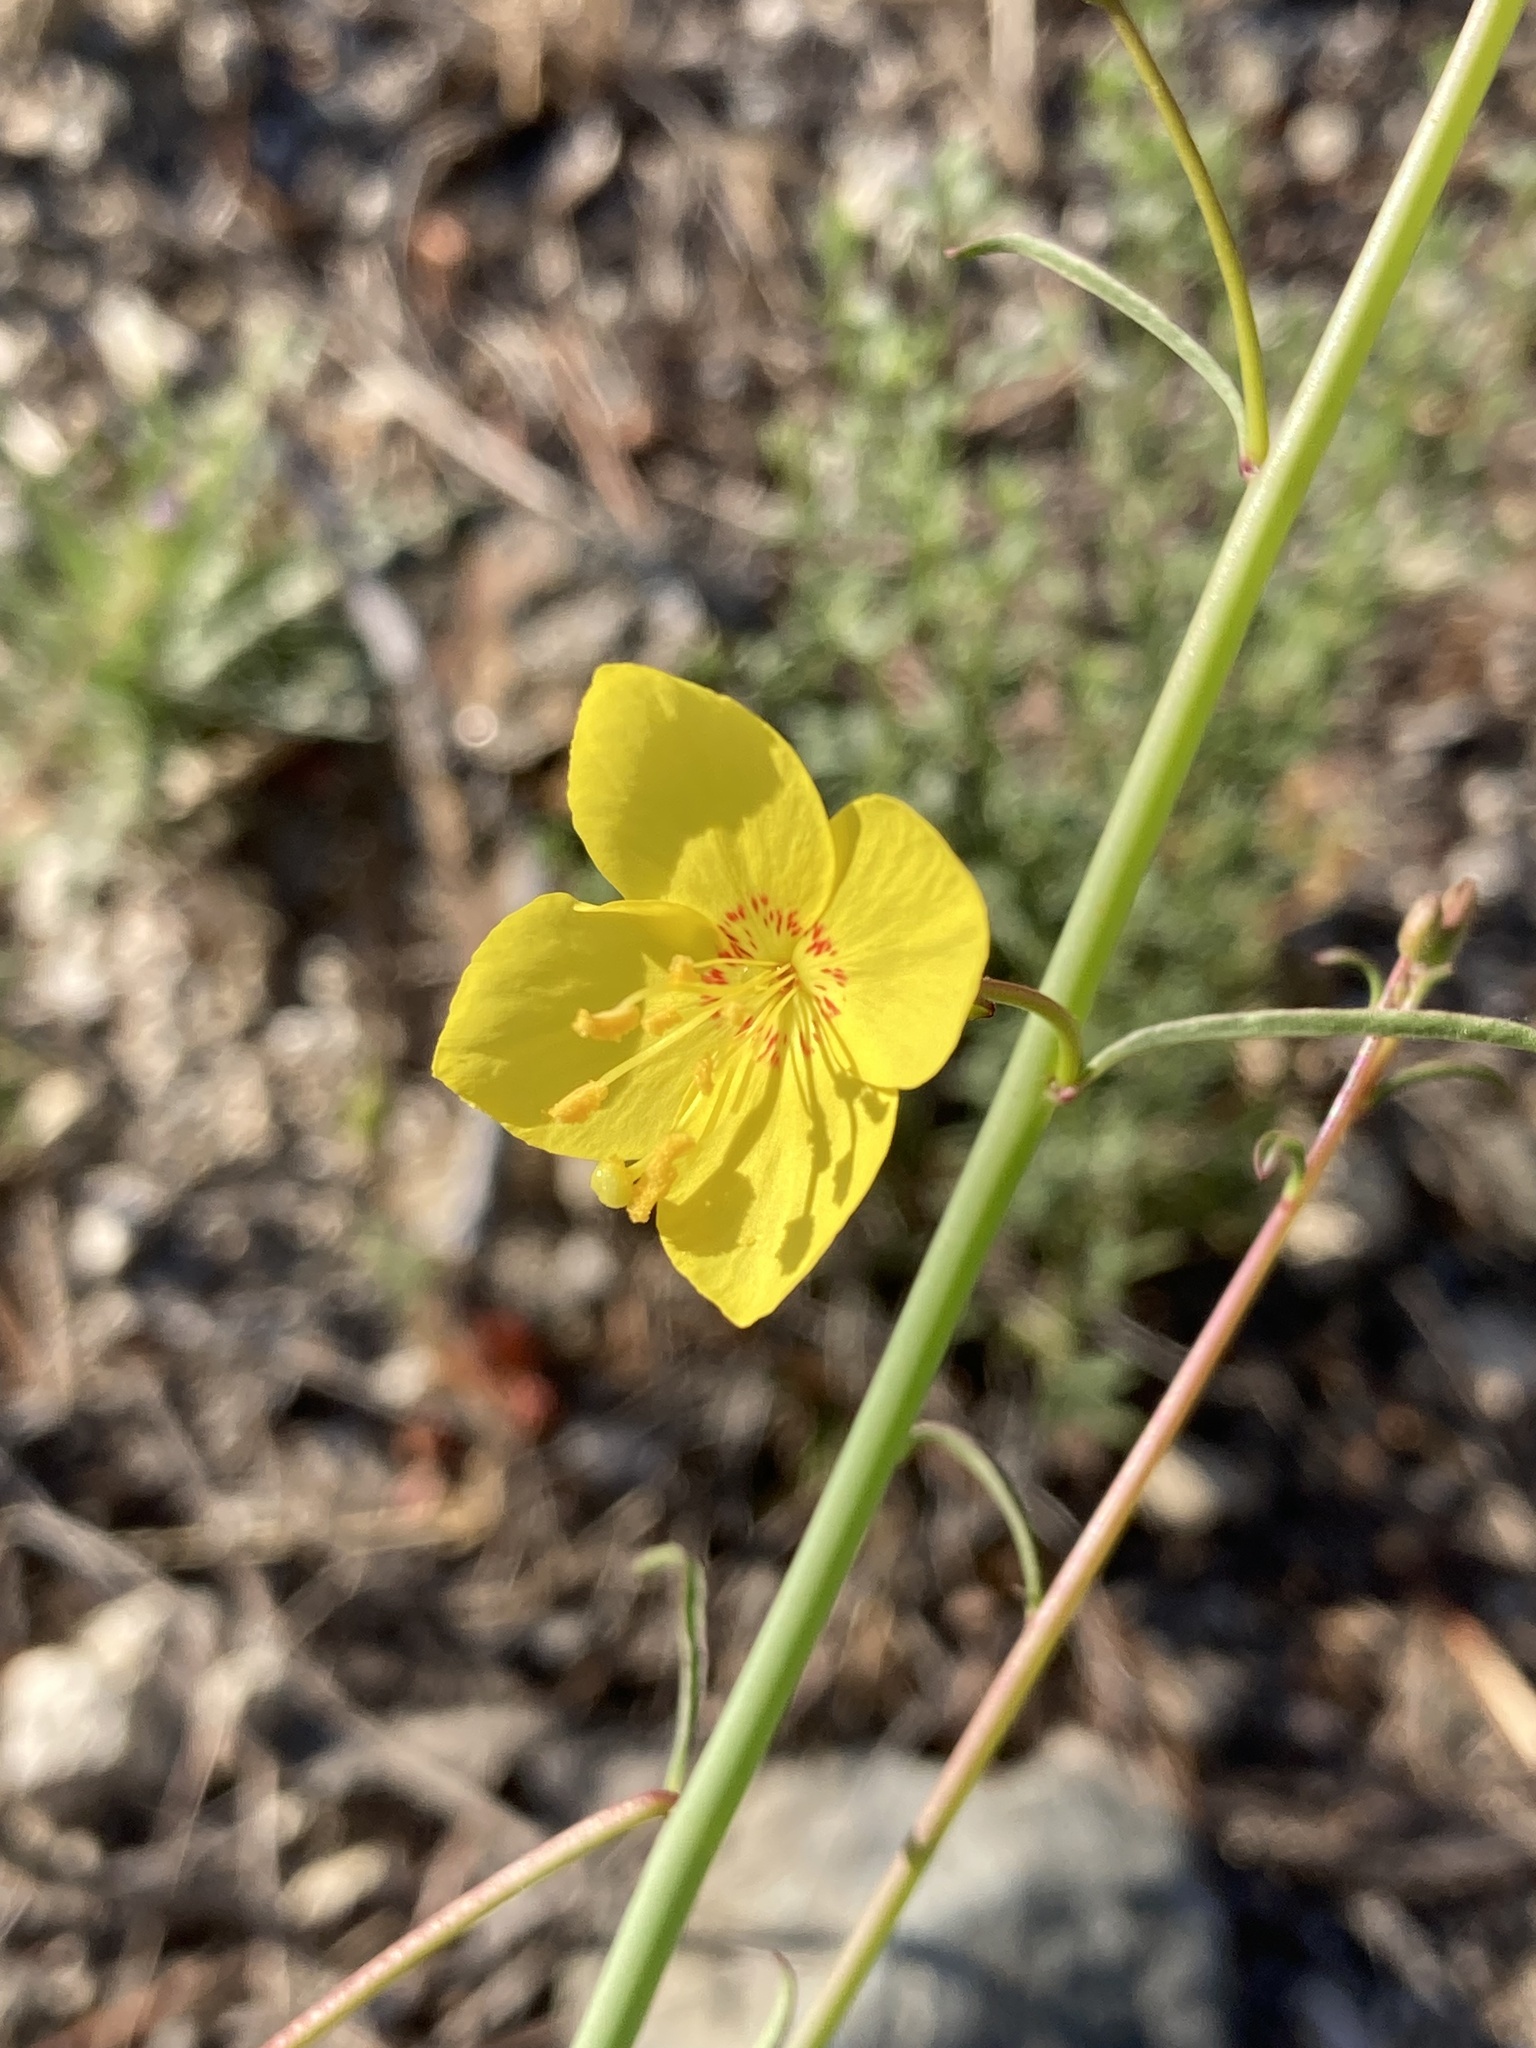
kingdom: Plantae
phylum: Tracheophyta
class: Magnoliopsida
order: Myrtales
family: Onagraceae
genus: Eulobus
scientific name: Eulobus californicus
